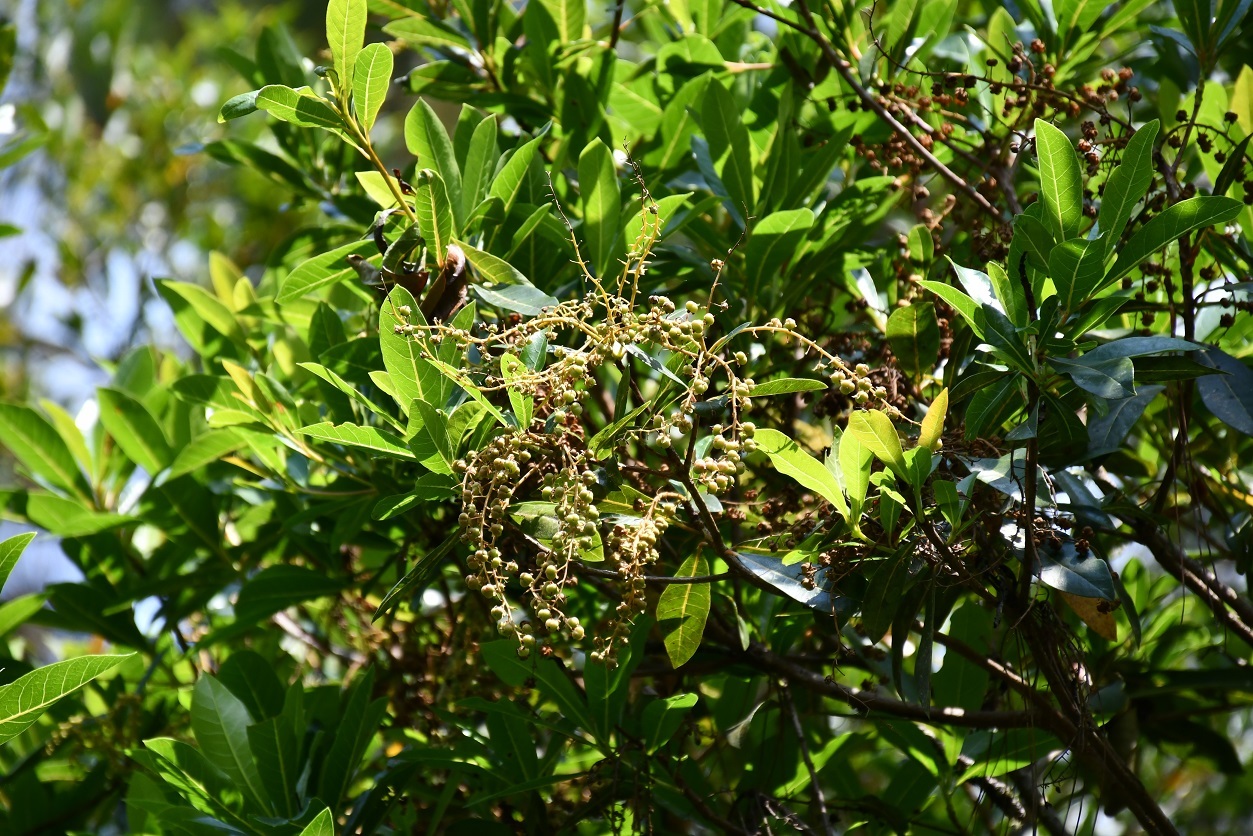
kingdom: Plantae
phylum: Tracheophyta
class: Magnoliopsida
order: Ericales
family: Clethraceae
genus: Clethra
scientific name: Clethra suaveolens
